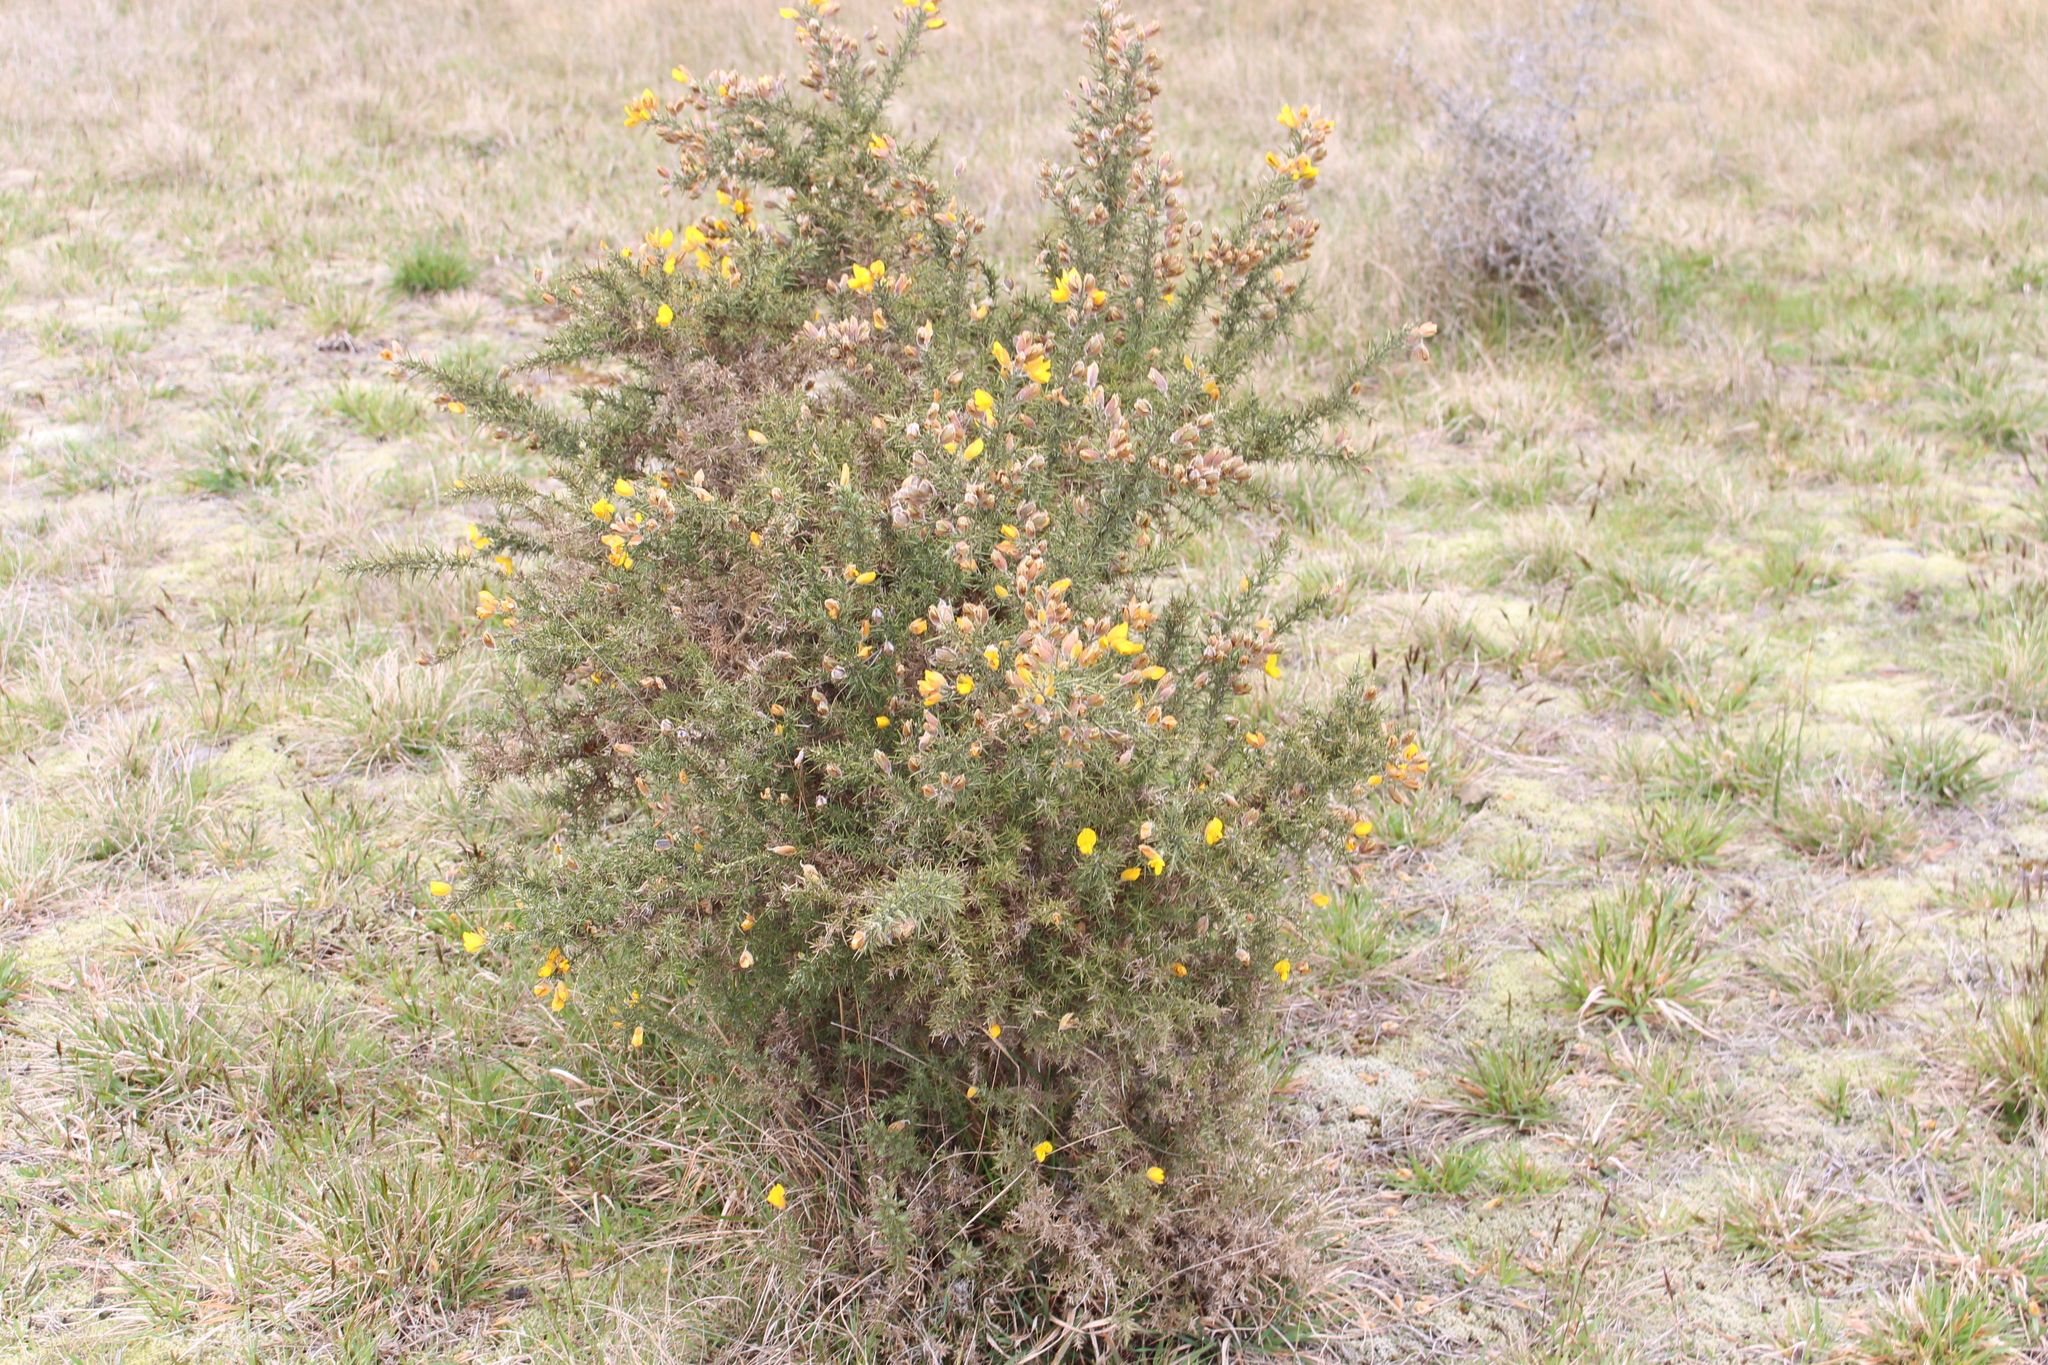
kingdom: Plantae
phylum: Tracheophyta
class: Magnoliopsida
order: Fabales
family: Fabaceae
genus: Ulex
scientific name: Ulex europaeus
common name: Common gorse
